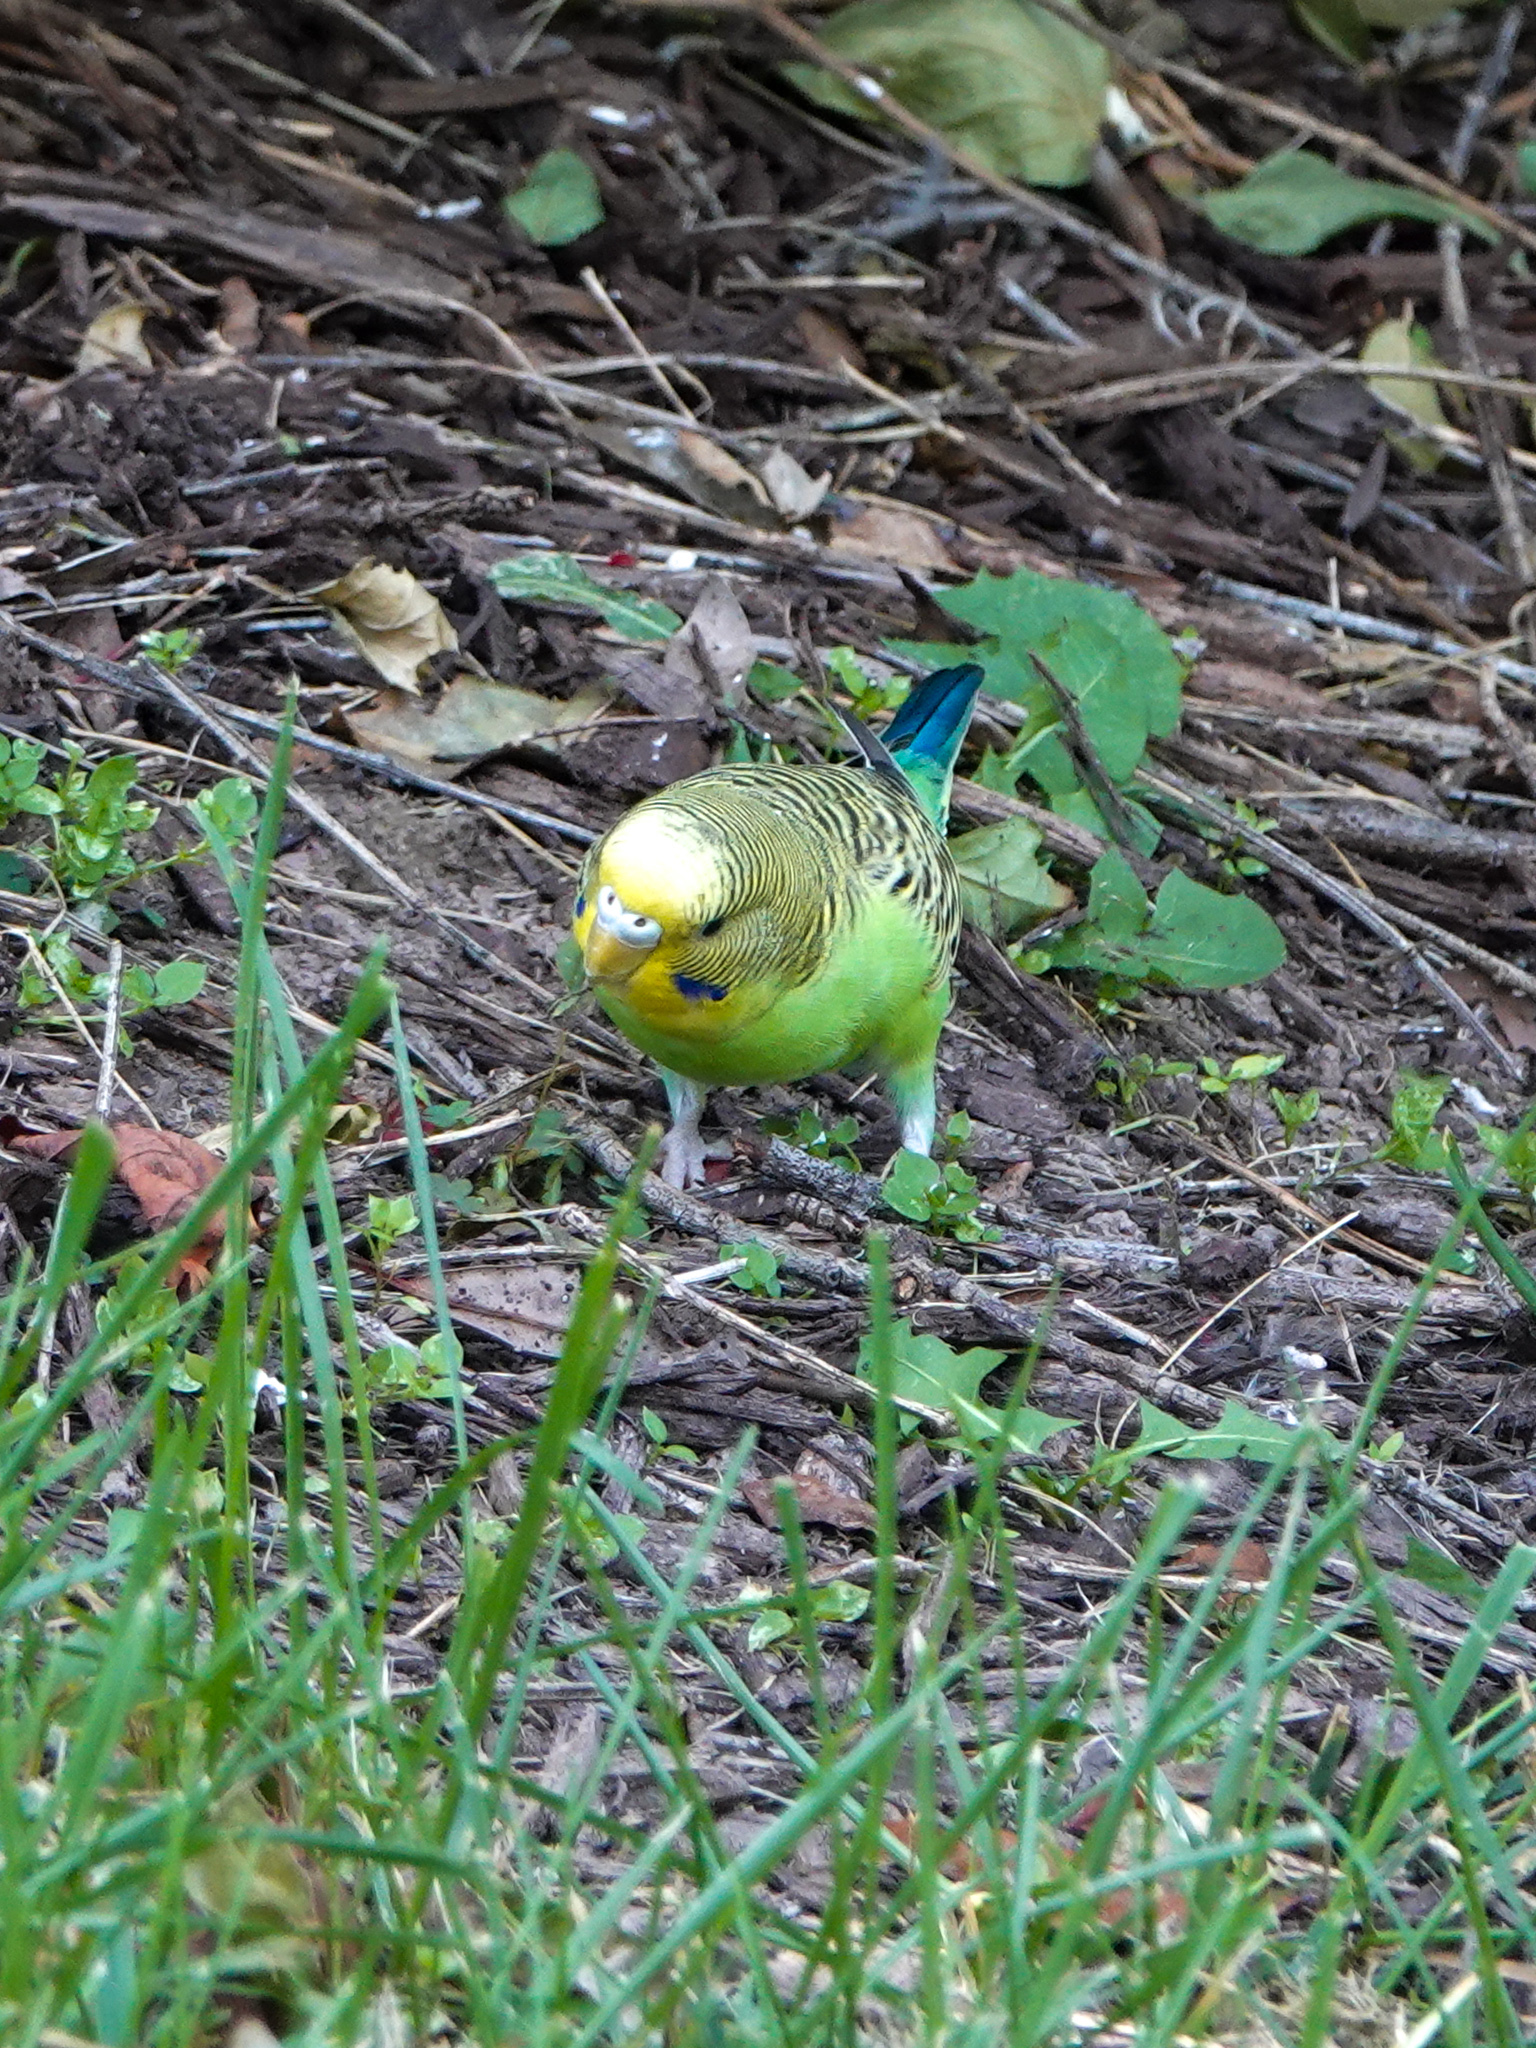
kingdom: Animalia
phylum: Chordata
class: Aves
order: Psittaciformes
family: Psittacidae
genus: Melopsittacus
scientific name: Melopsittacus undulatus
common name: Budgerigar
